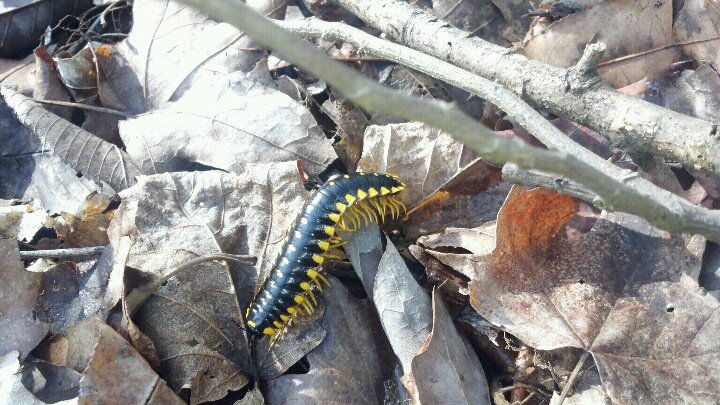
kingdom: Animalia
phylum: Arthropoda
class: Diplopoda
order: Polydesmida
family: Xystodesmidae
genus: Apheloria
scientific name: Apheloria montana
